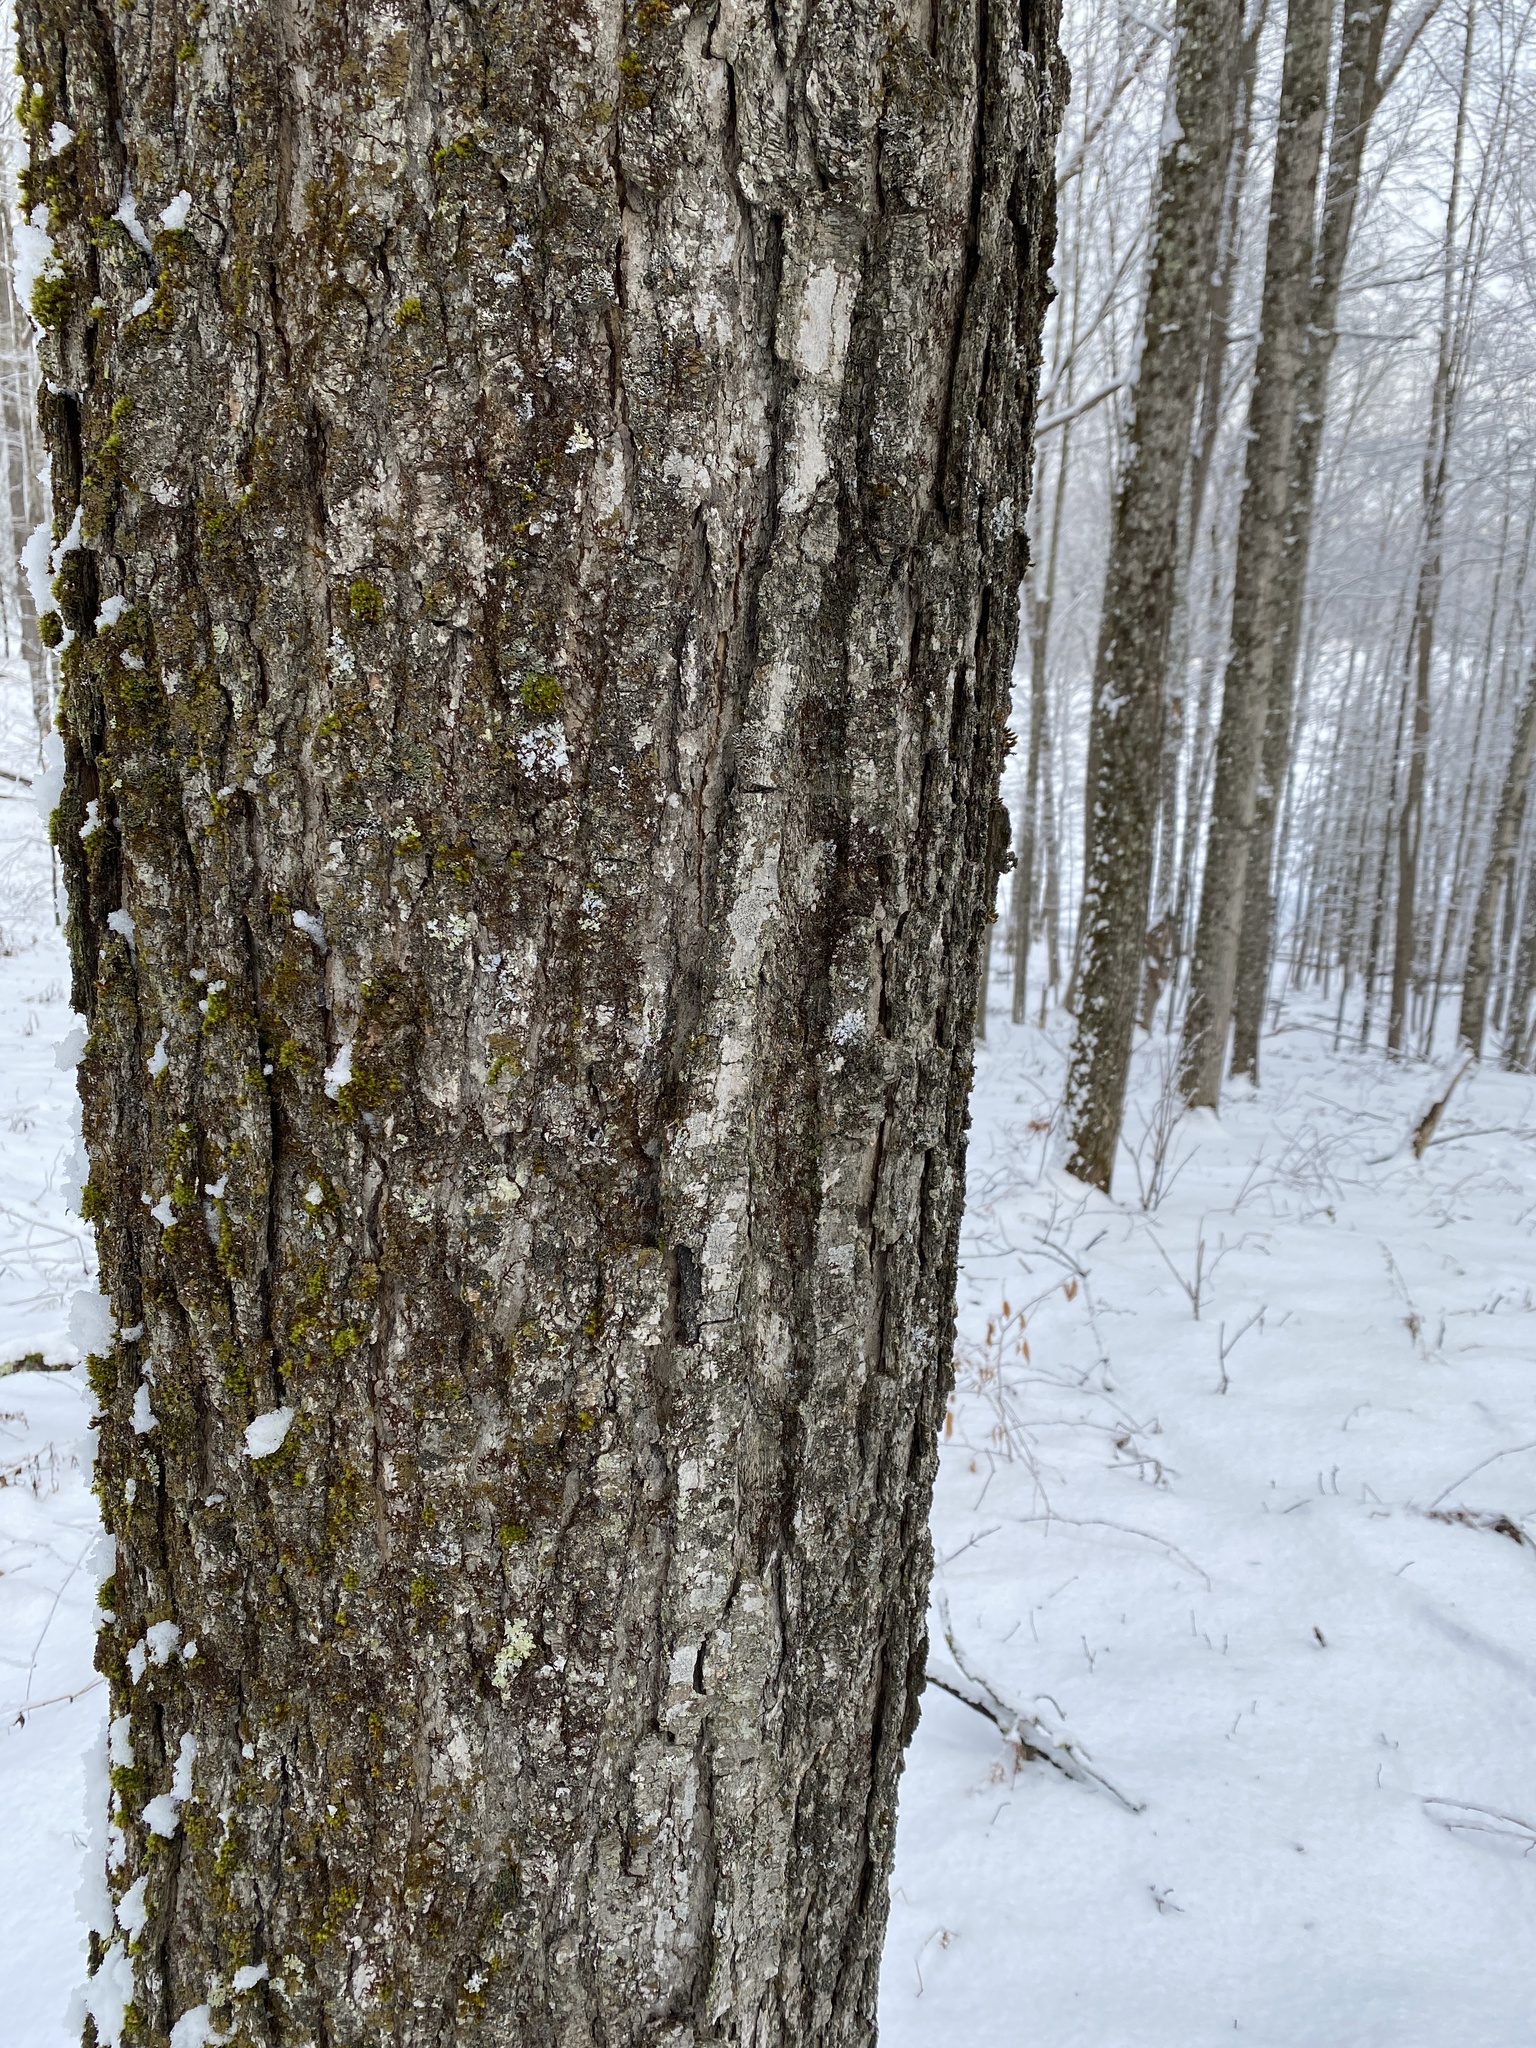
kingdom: Plantae
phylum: Tracheophyta
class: Magnoliopsida
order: Sapindales
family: Sapindaceae
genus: Acer
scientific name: Acer saccharum
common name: Sugar maple
